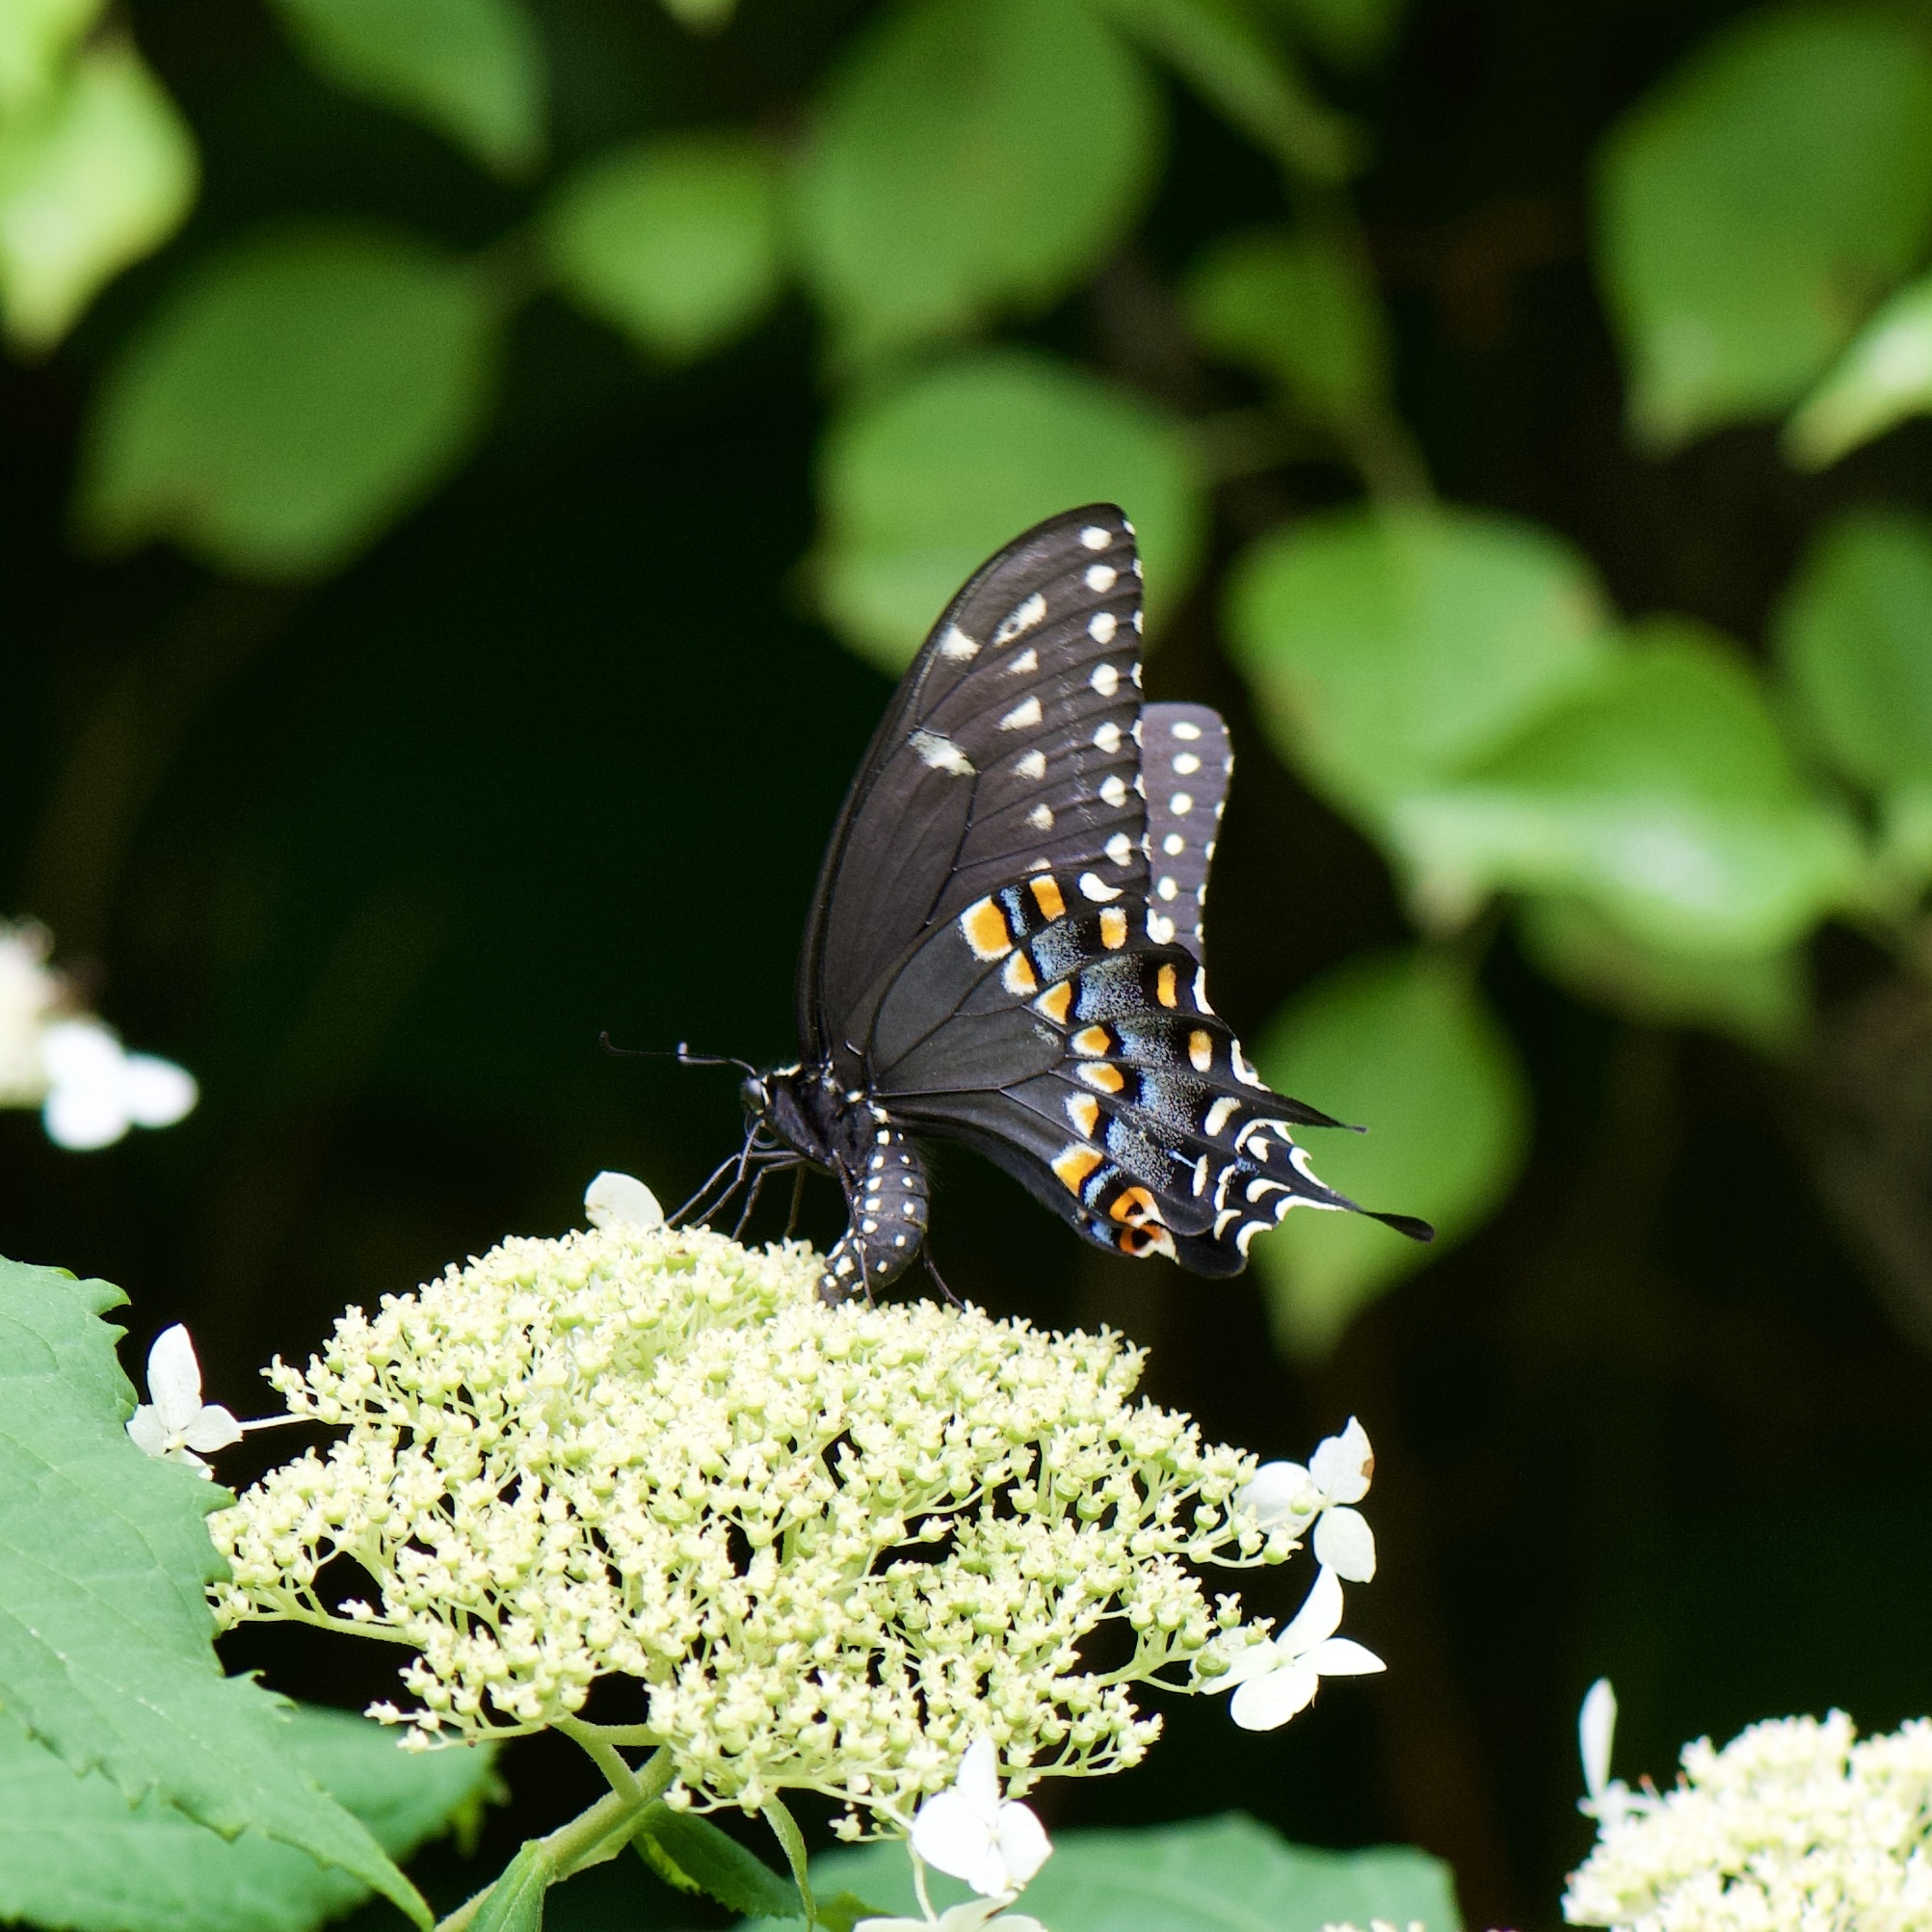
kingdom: Animalia
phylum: Arthropoda
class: Insecta
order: Lepidoptera
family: Papilionidae
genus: Papilio
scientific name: Papilio polyxenes
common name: Black swallowtail
